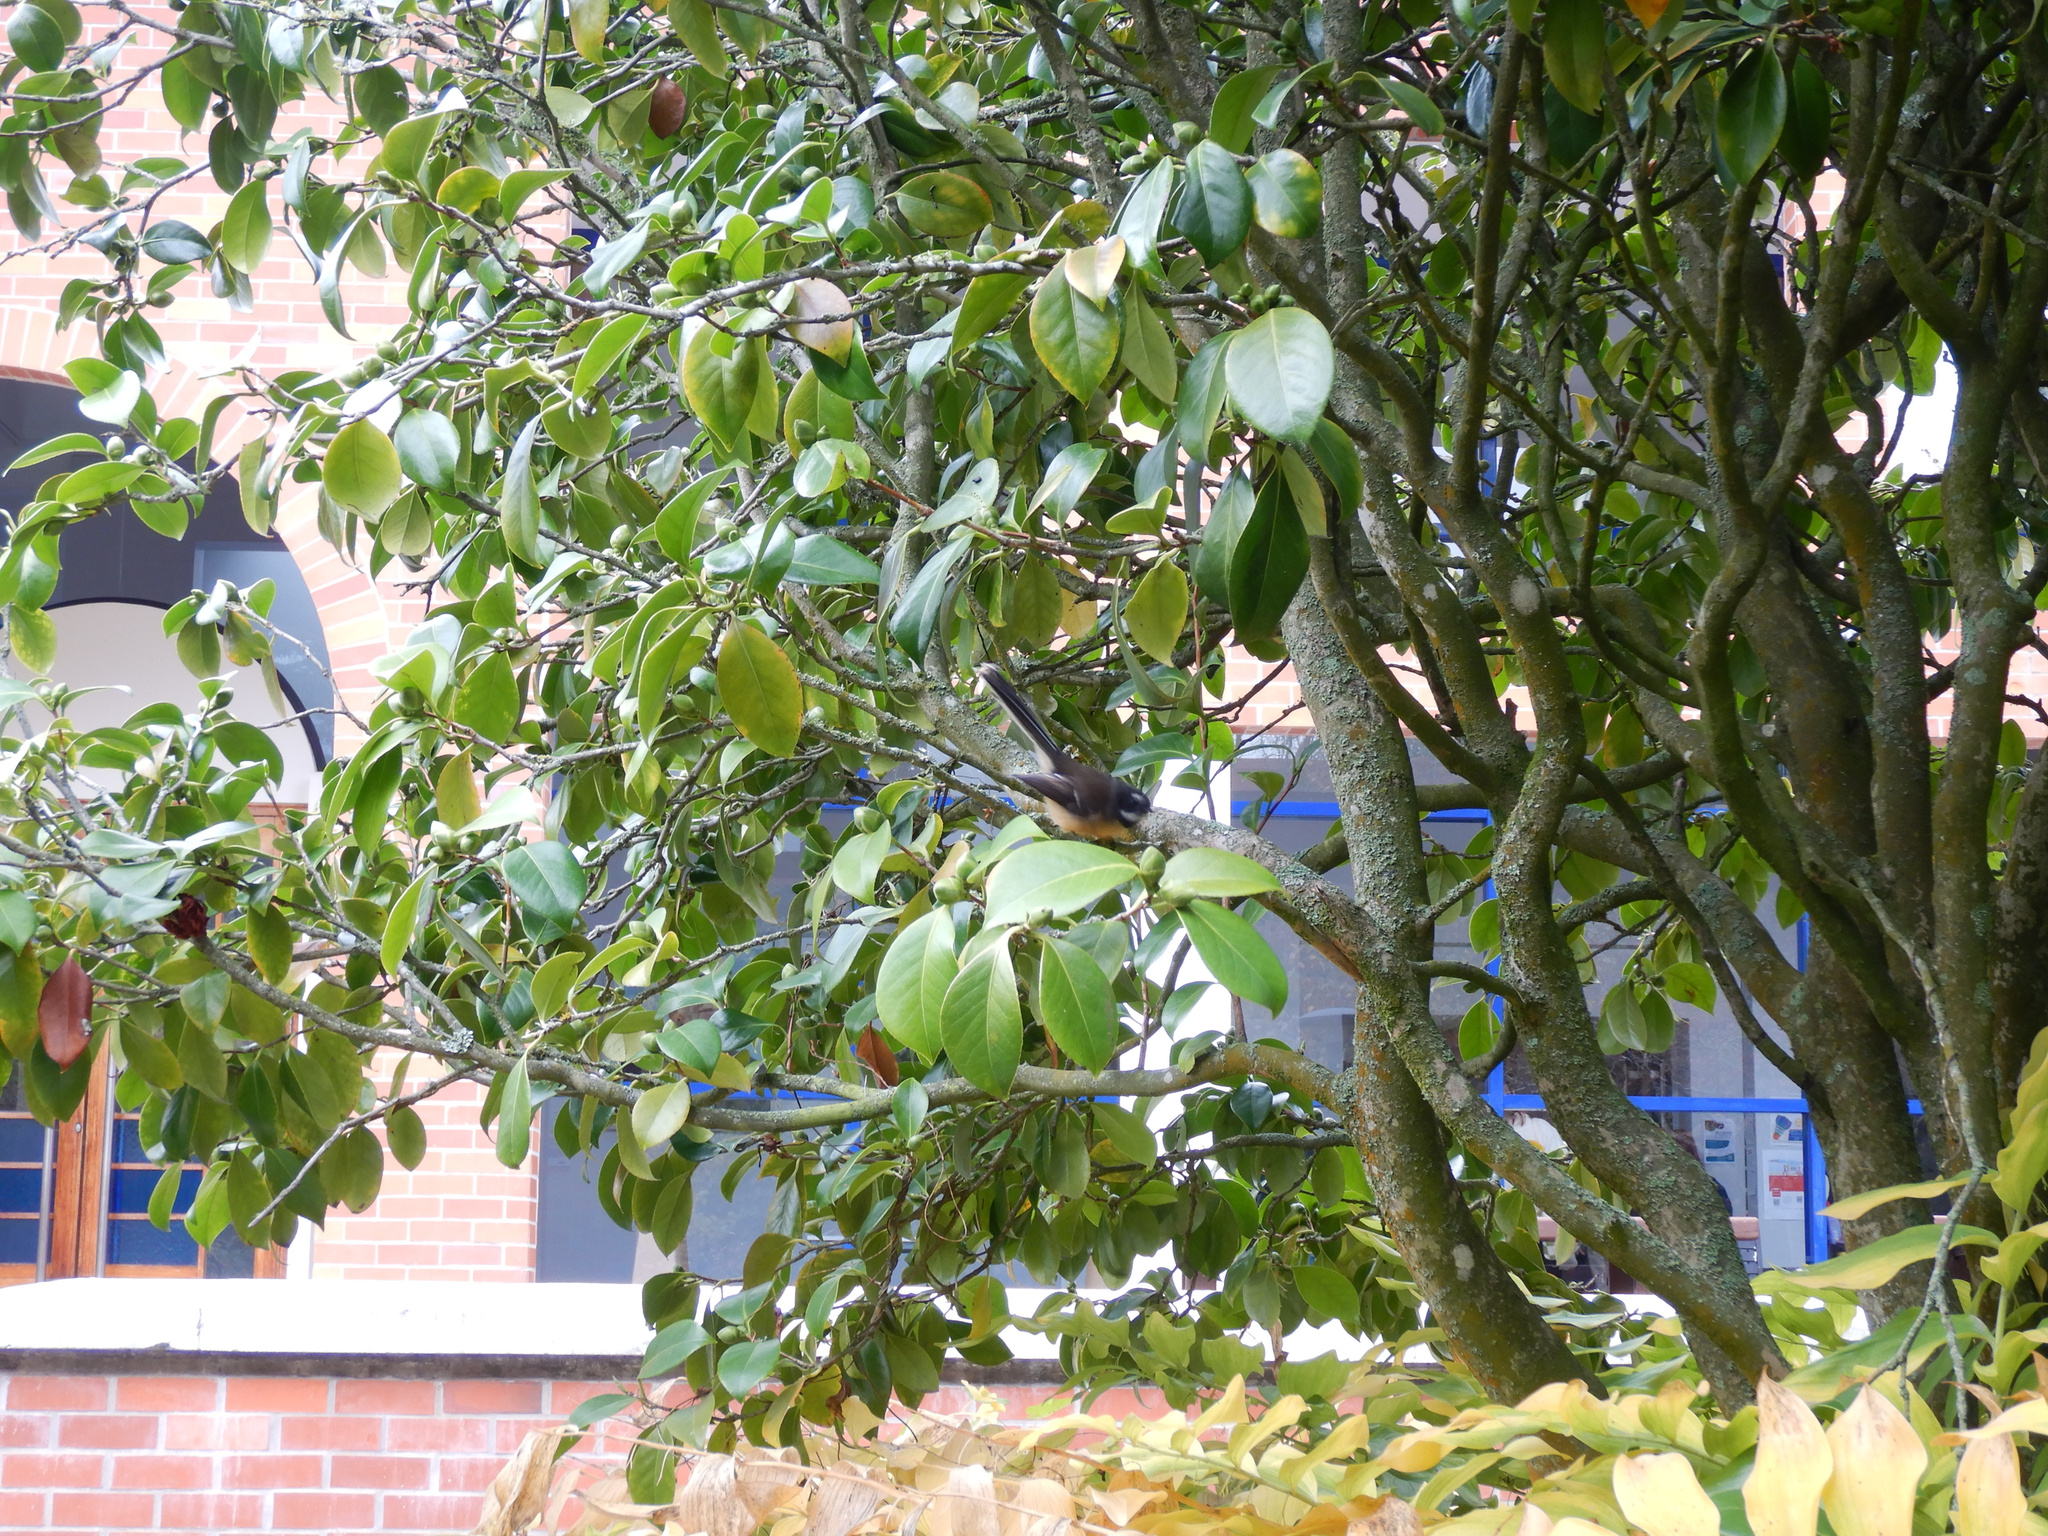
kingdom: Animalia
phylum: Chordata
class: Aves
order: Passeriformes
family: Rhipiduridae
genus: Rhipidura
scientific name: Rhipidura fuliginosa
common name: New zealand fantail
